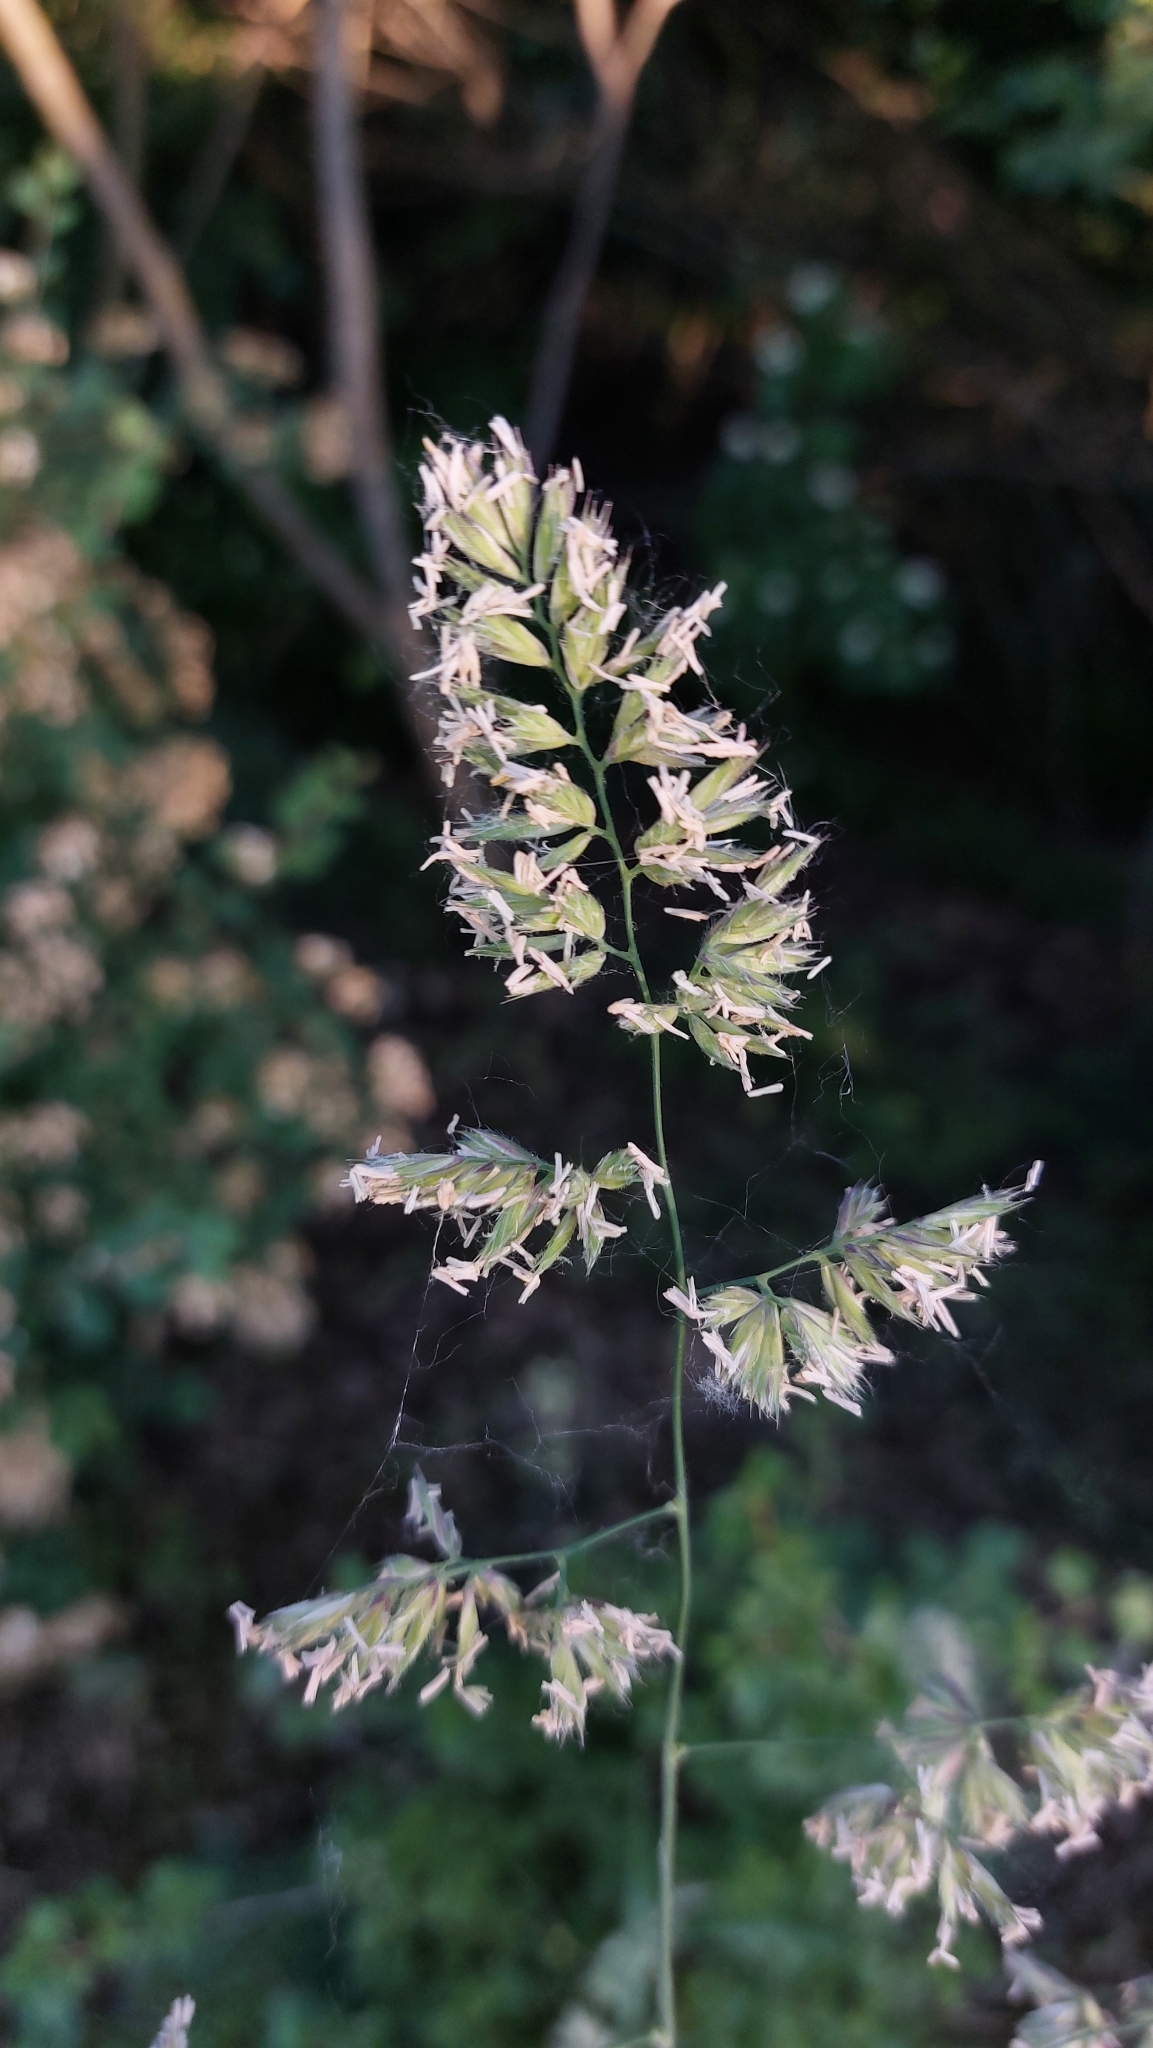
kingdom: Plantae
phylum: Tracheophyta
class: Liliopsida
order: Poales
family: Poaceae
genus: Dactylis
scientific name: Dactylis glomerata
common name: Orchardgrass
